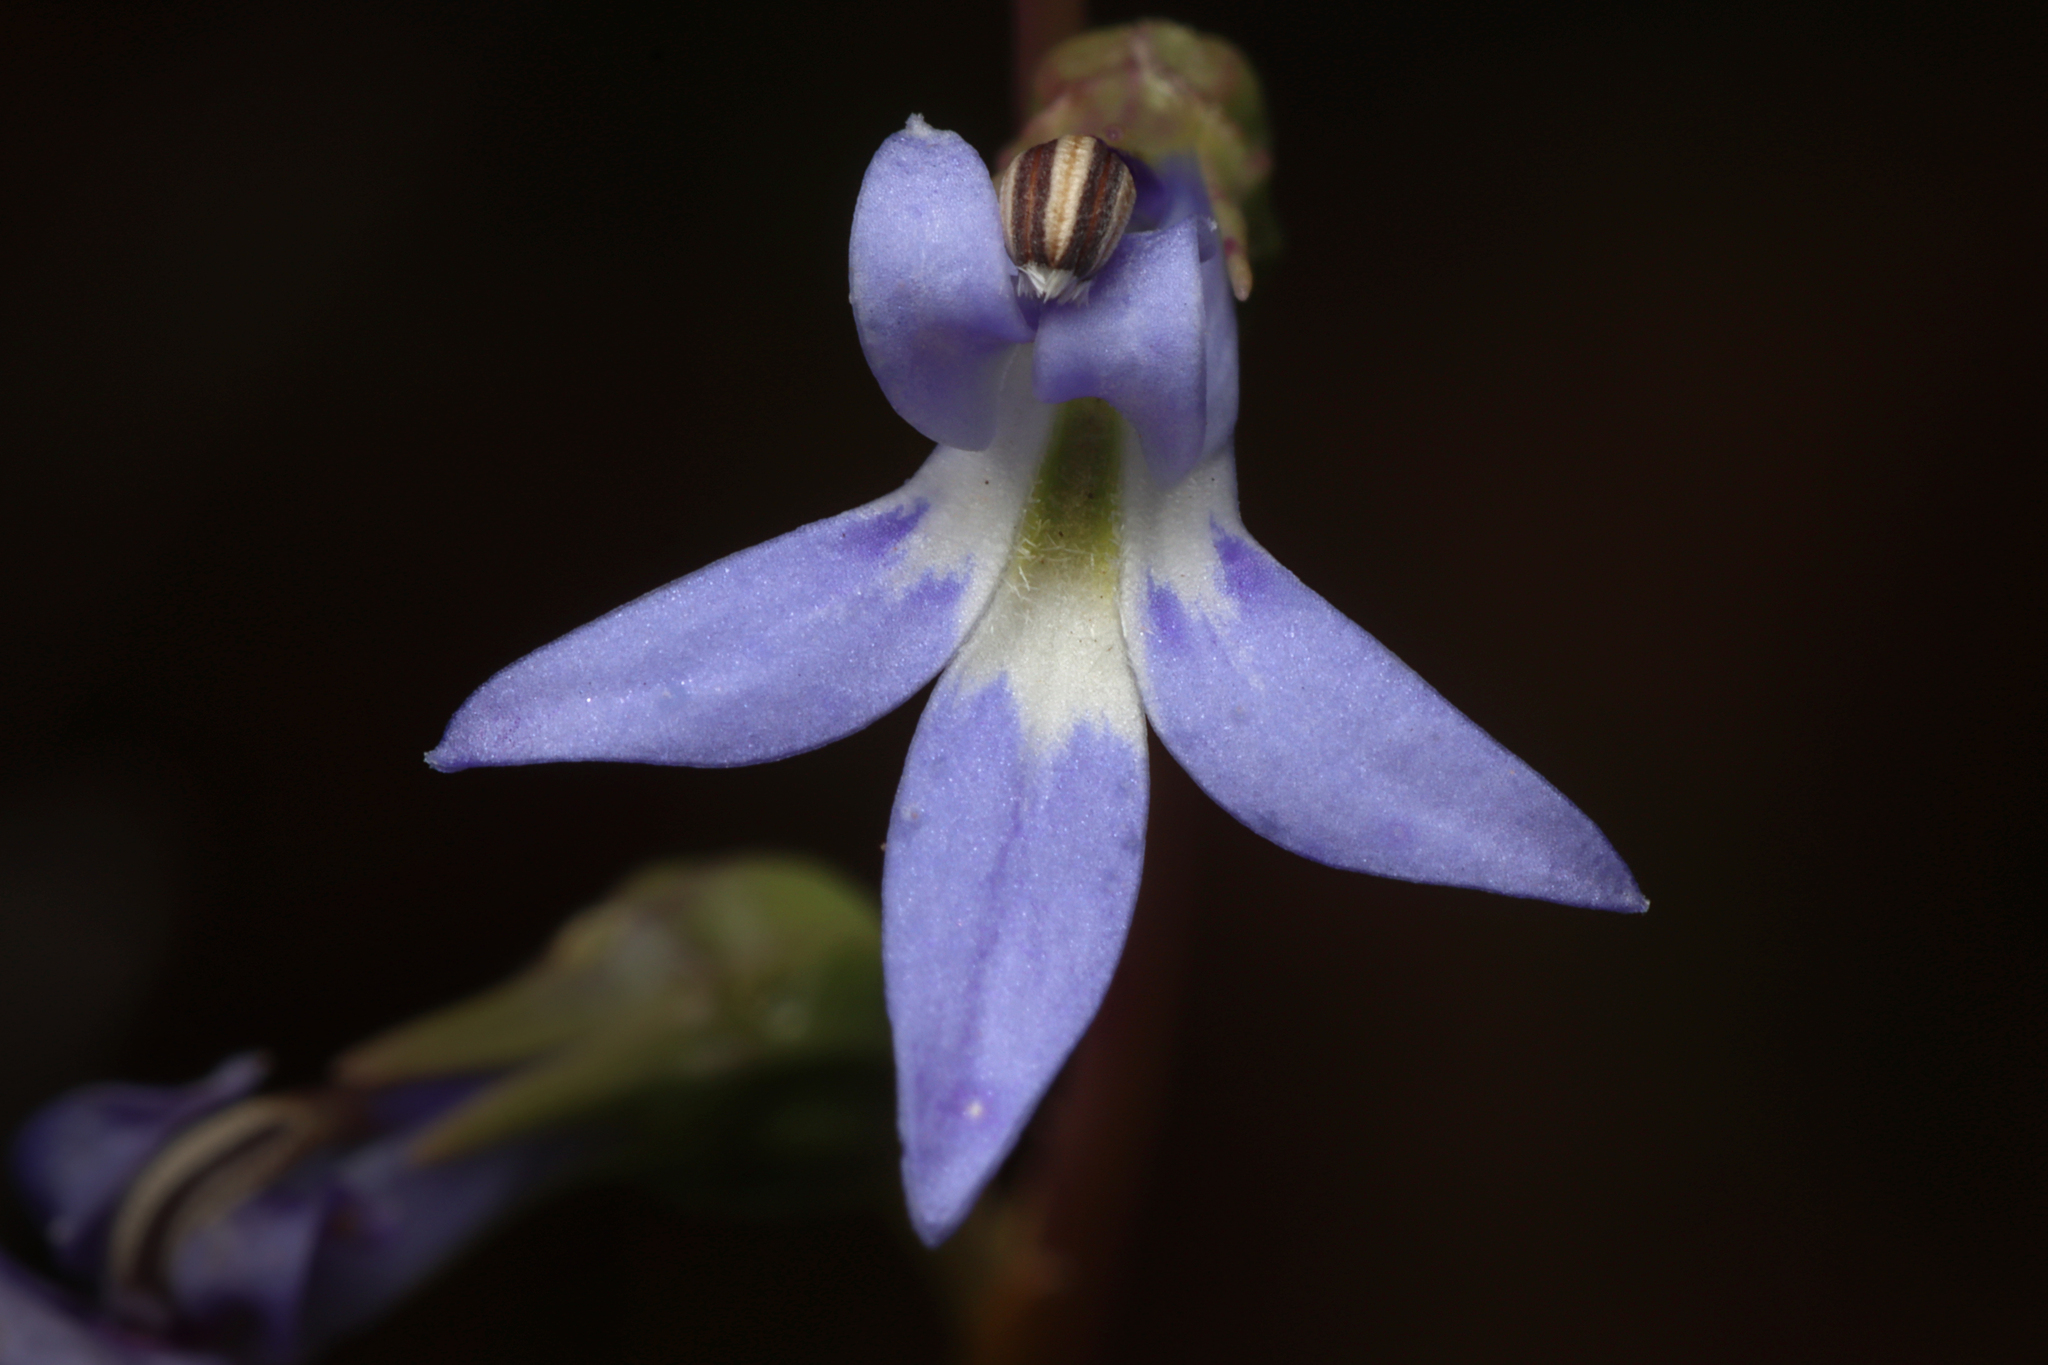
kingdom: Plantae
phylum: Tracheophyta
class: Magnoliopsida
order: Asterales
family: Campanulaceae
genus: Lobelia
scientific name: Lobelia gibbosa
